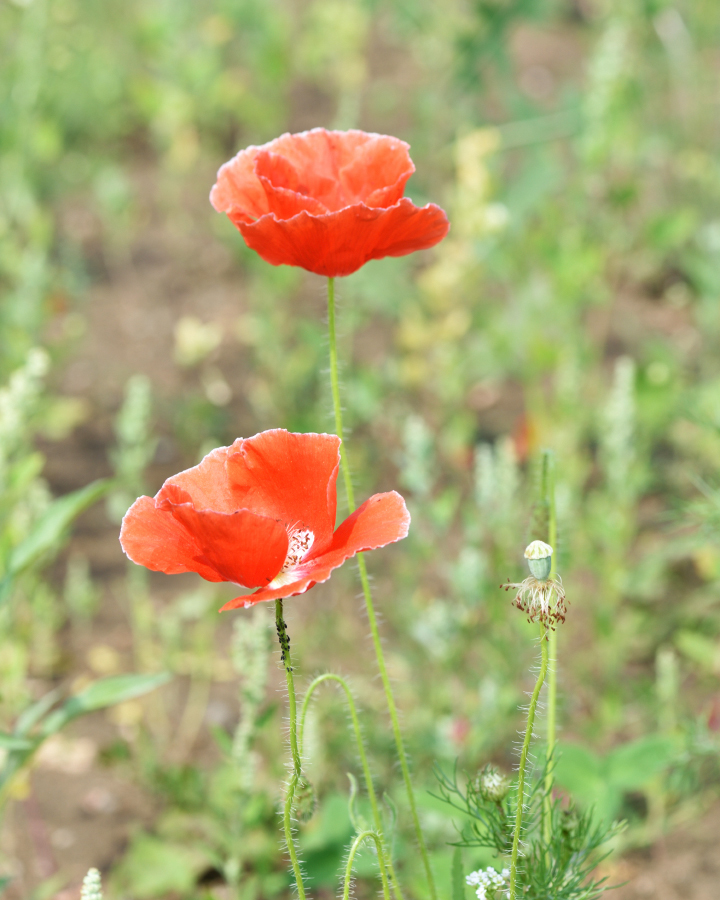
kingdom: Plantae
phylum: Tracheophyta
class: Magnoliopsida
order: Ranunculales
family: Papaveraceae
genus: Papaver
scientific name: Papaver rhoeas
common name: Corn poppy
